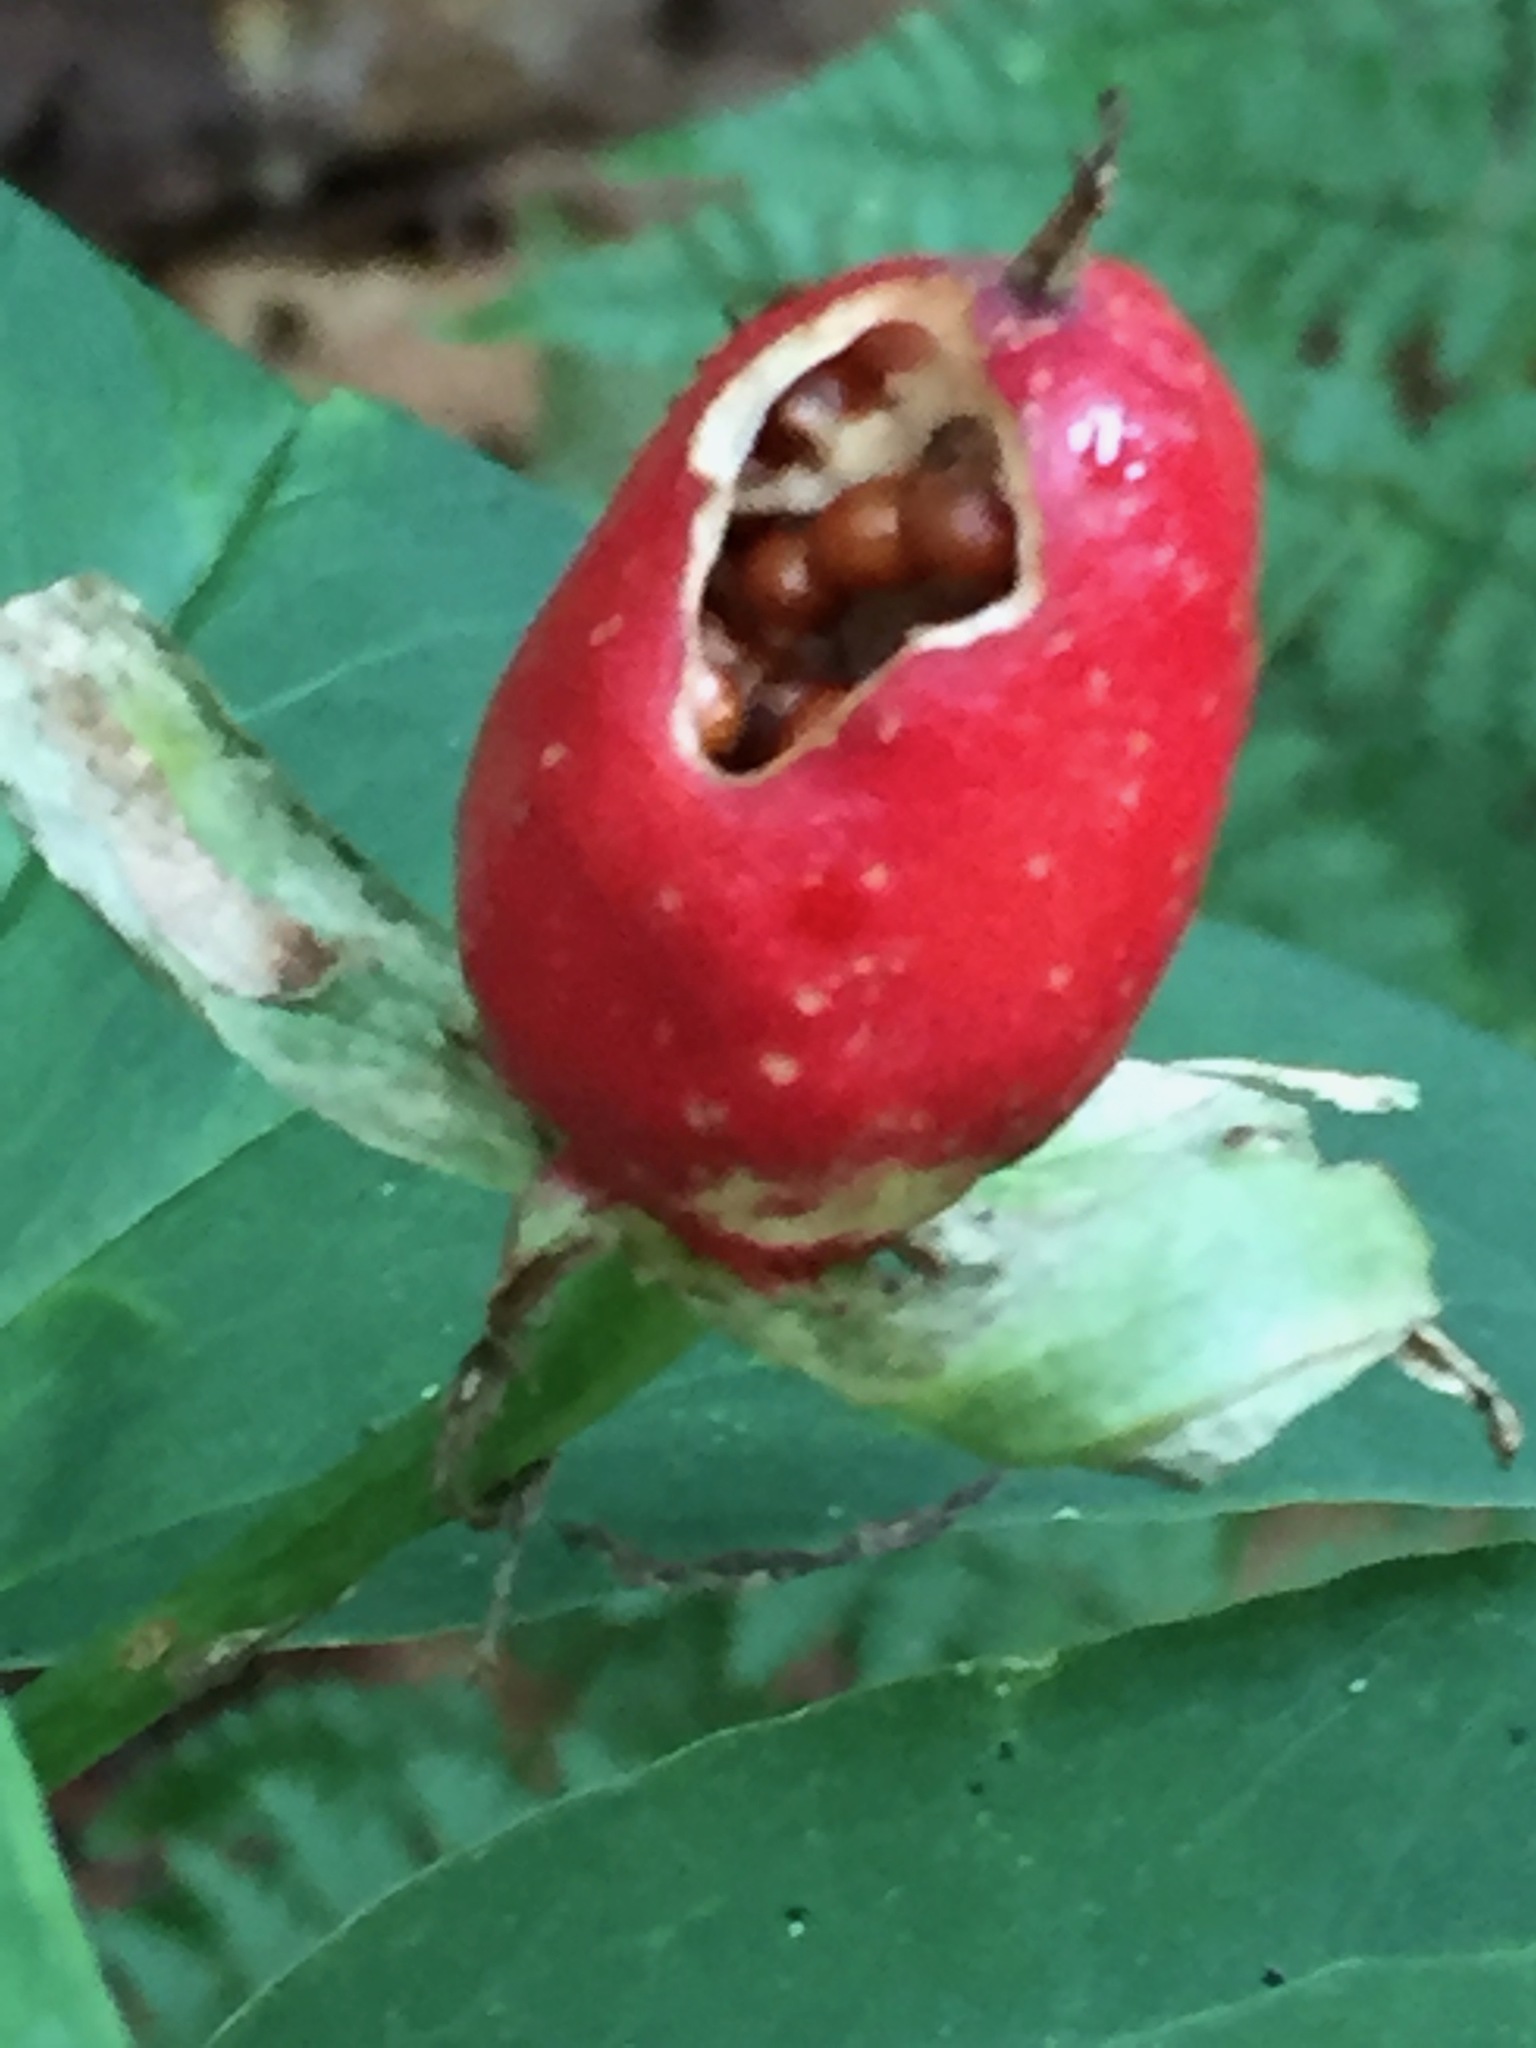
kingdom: Plantae
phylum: Tracheophyta
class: Liliopsida
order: Liliales
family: Melanthiaceae
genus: Trillium
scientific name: Trillium undulatum
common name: Paint trillium
